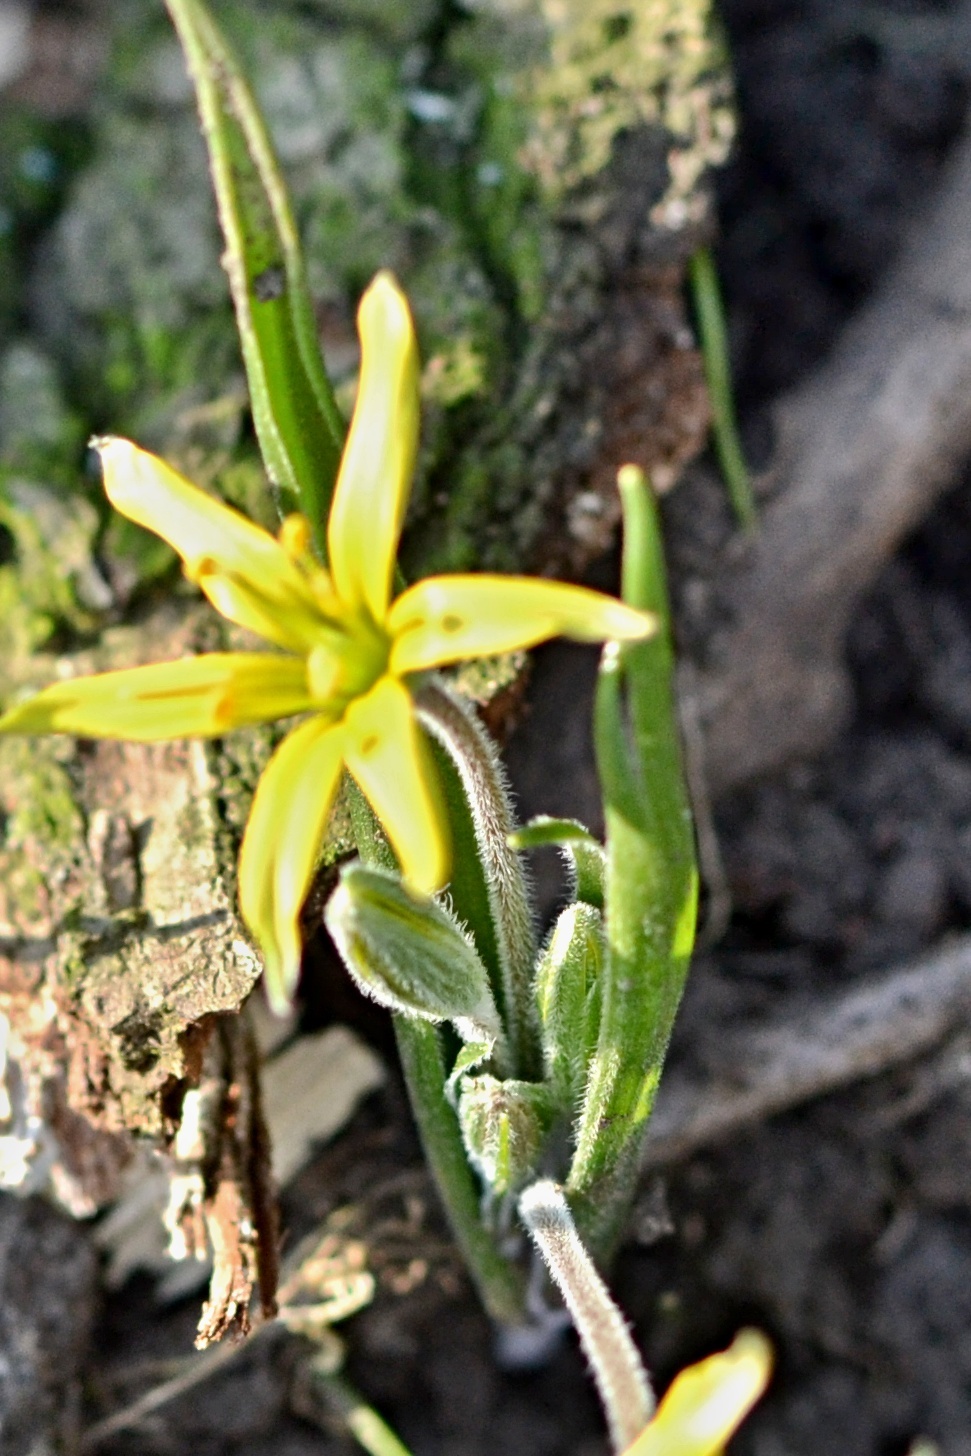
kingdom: Plantae
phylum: Tracheophyta
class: Liliopsida
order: Liliales
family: Liliaceae
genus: Gagea
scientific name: Gagea villosa
